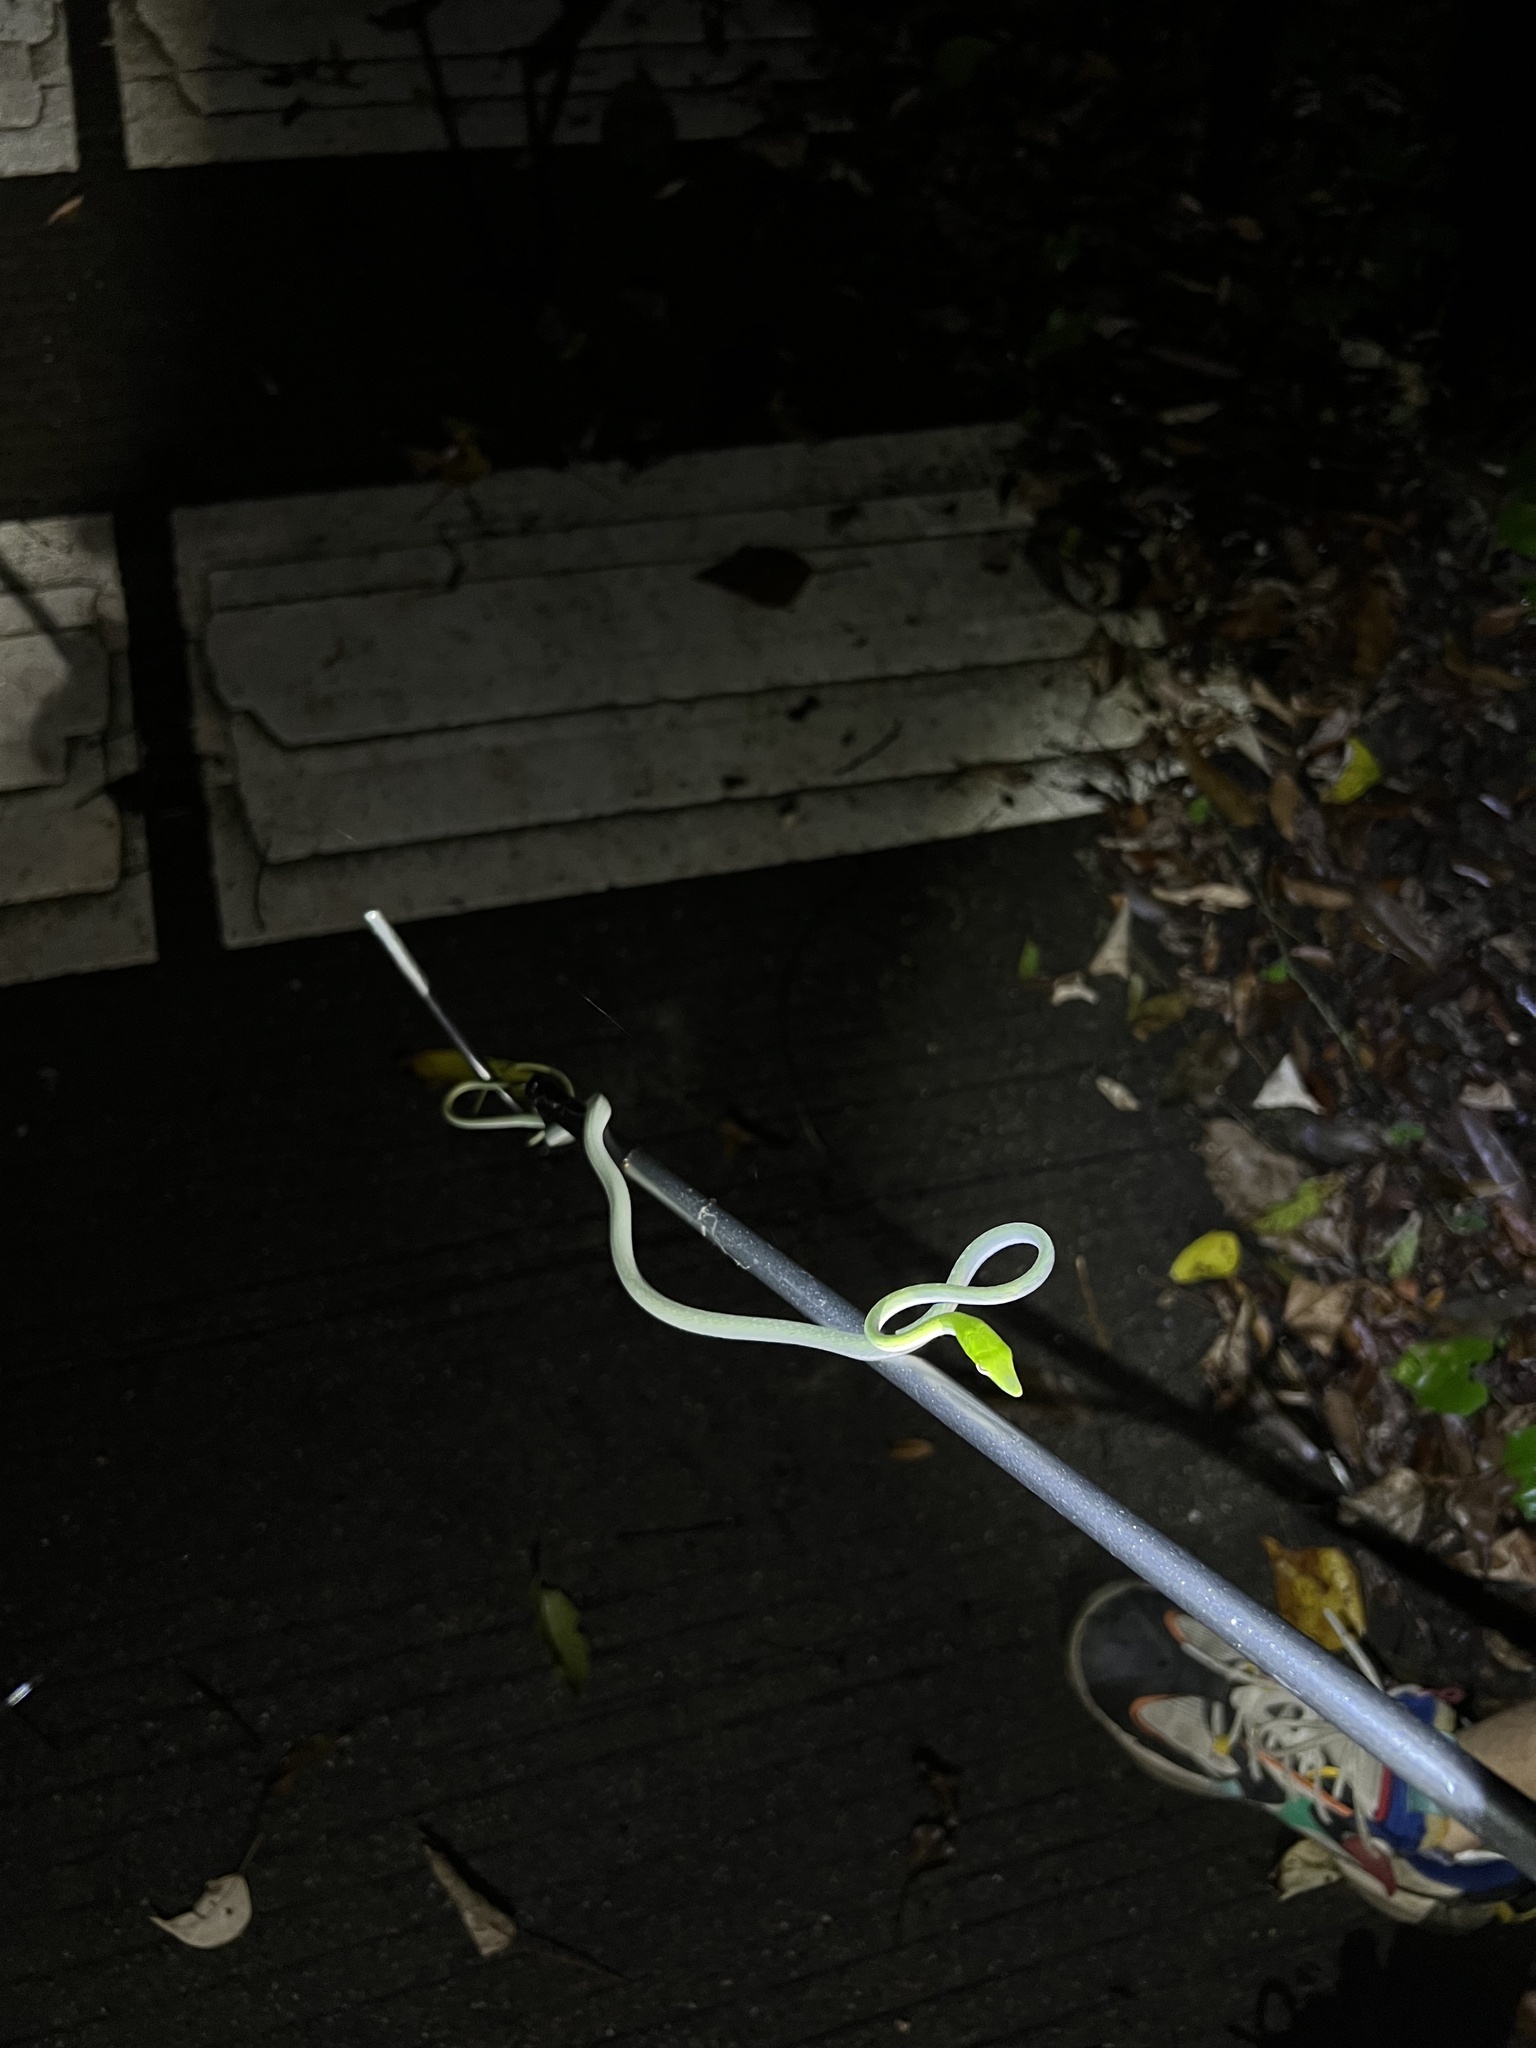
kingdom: Animalia
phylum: Chordata
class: Squamata
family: Colubridae
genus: Ahaetulla
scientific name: Ahaetulla prasina
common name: Oriental whip snake
